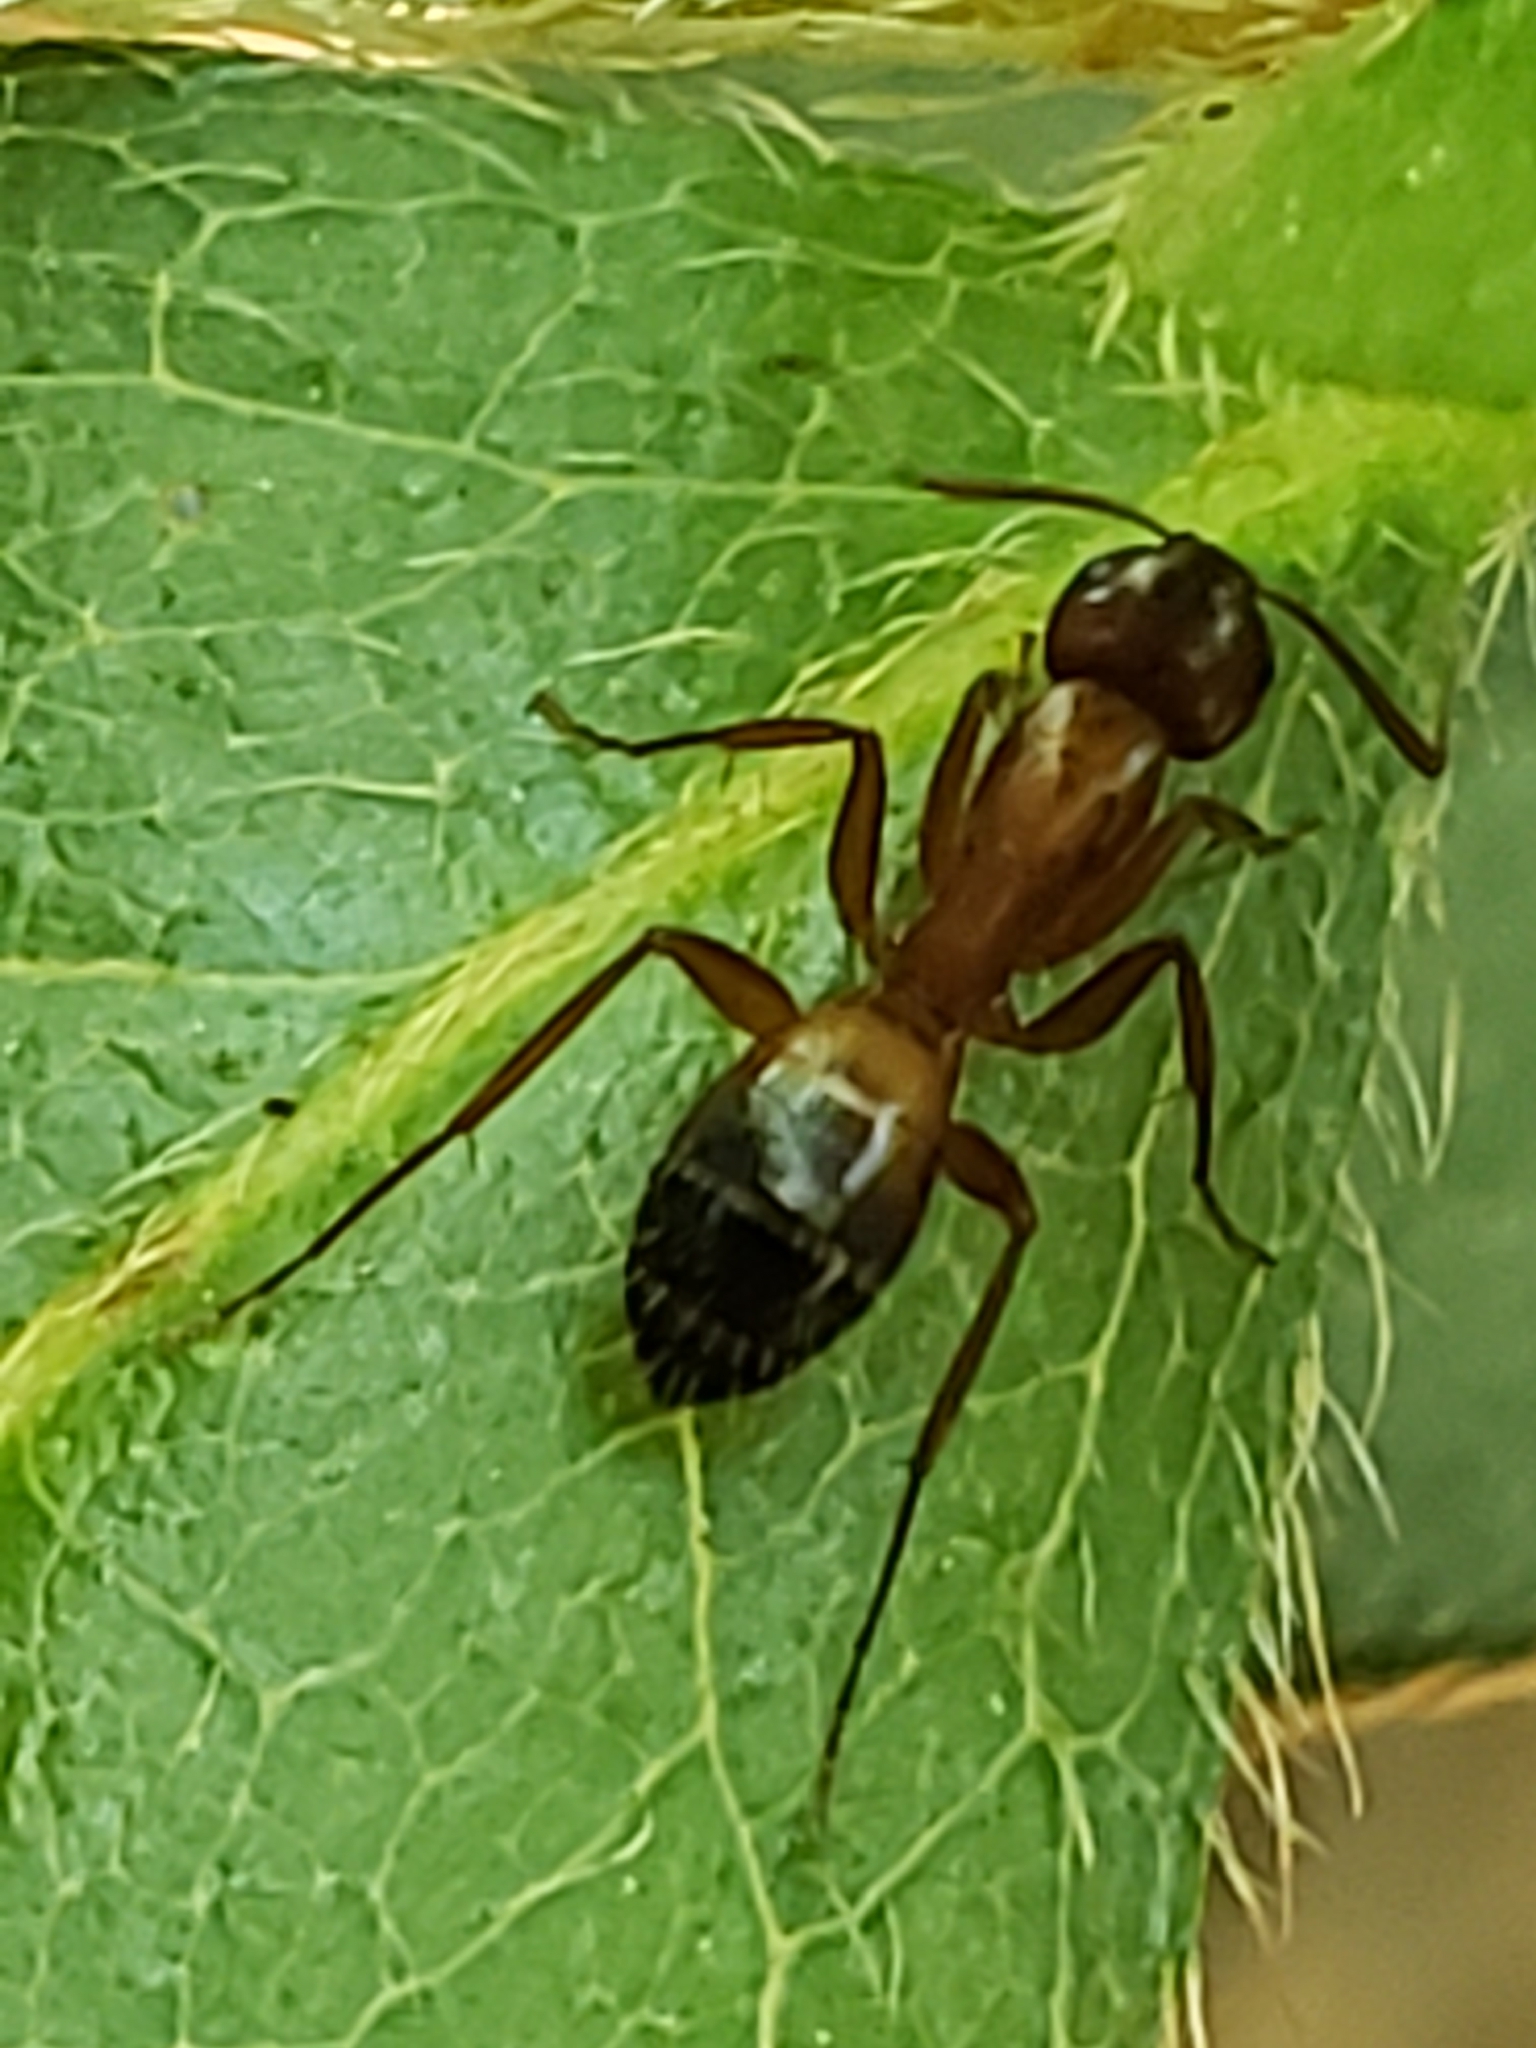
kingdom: Animalia
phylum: Arthropoda
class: Insecta
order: Hymenoptera
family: Formicidae
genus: Camponotus
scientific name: Camponotus snellingi
